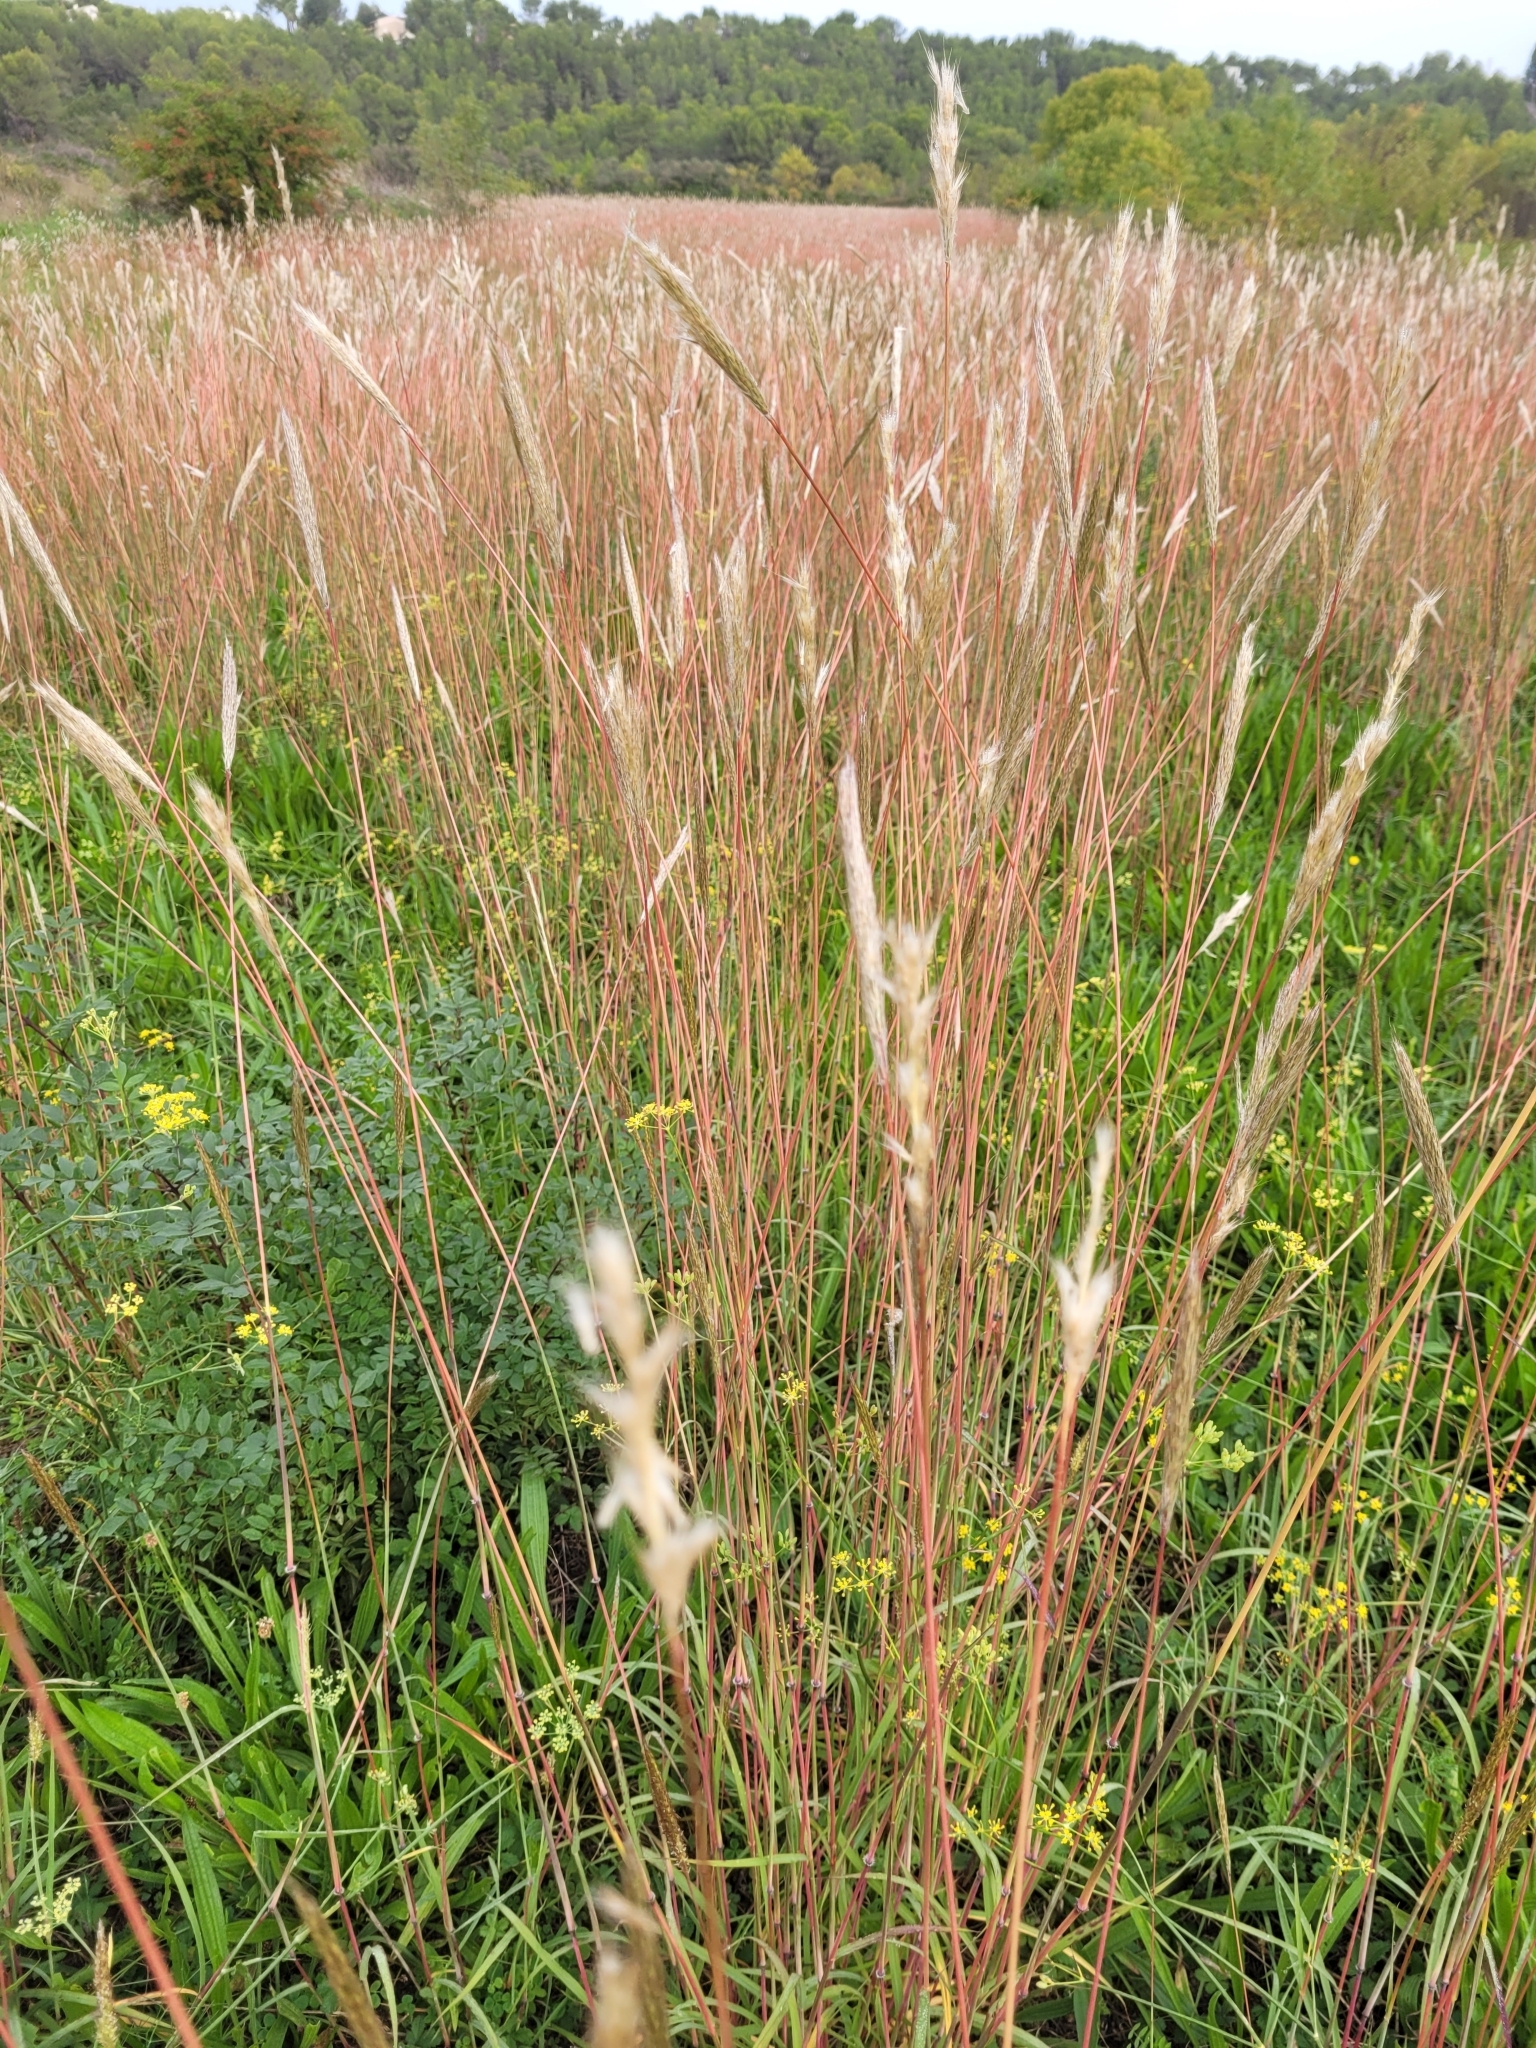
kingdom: Plantae
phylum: Tracheophyta
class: Liliopsida
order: Poales
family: Poaceae
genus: Bothriochloa
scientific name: Bothriochloa barbinodis
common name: Cane bluestem
